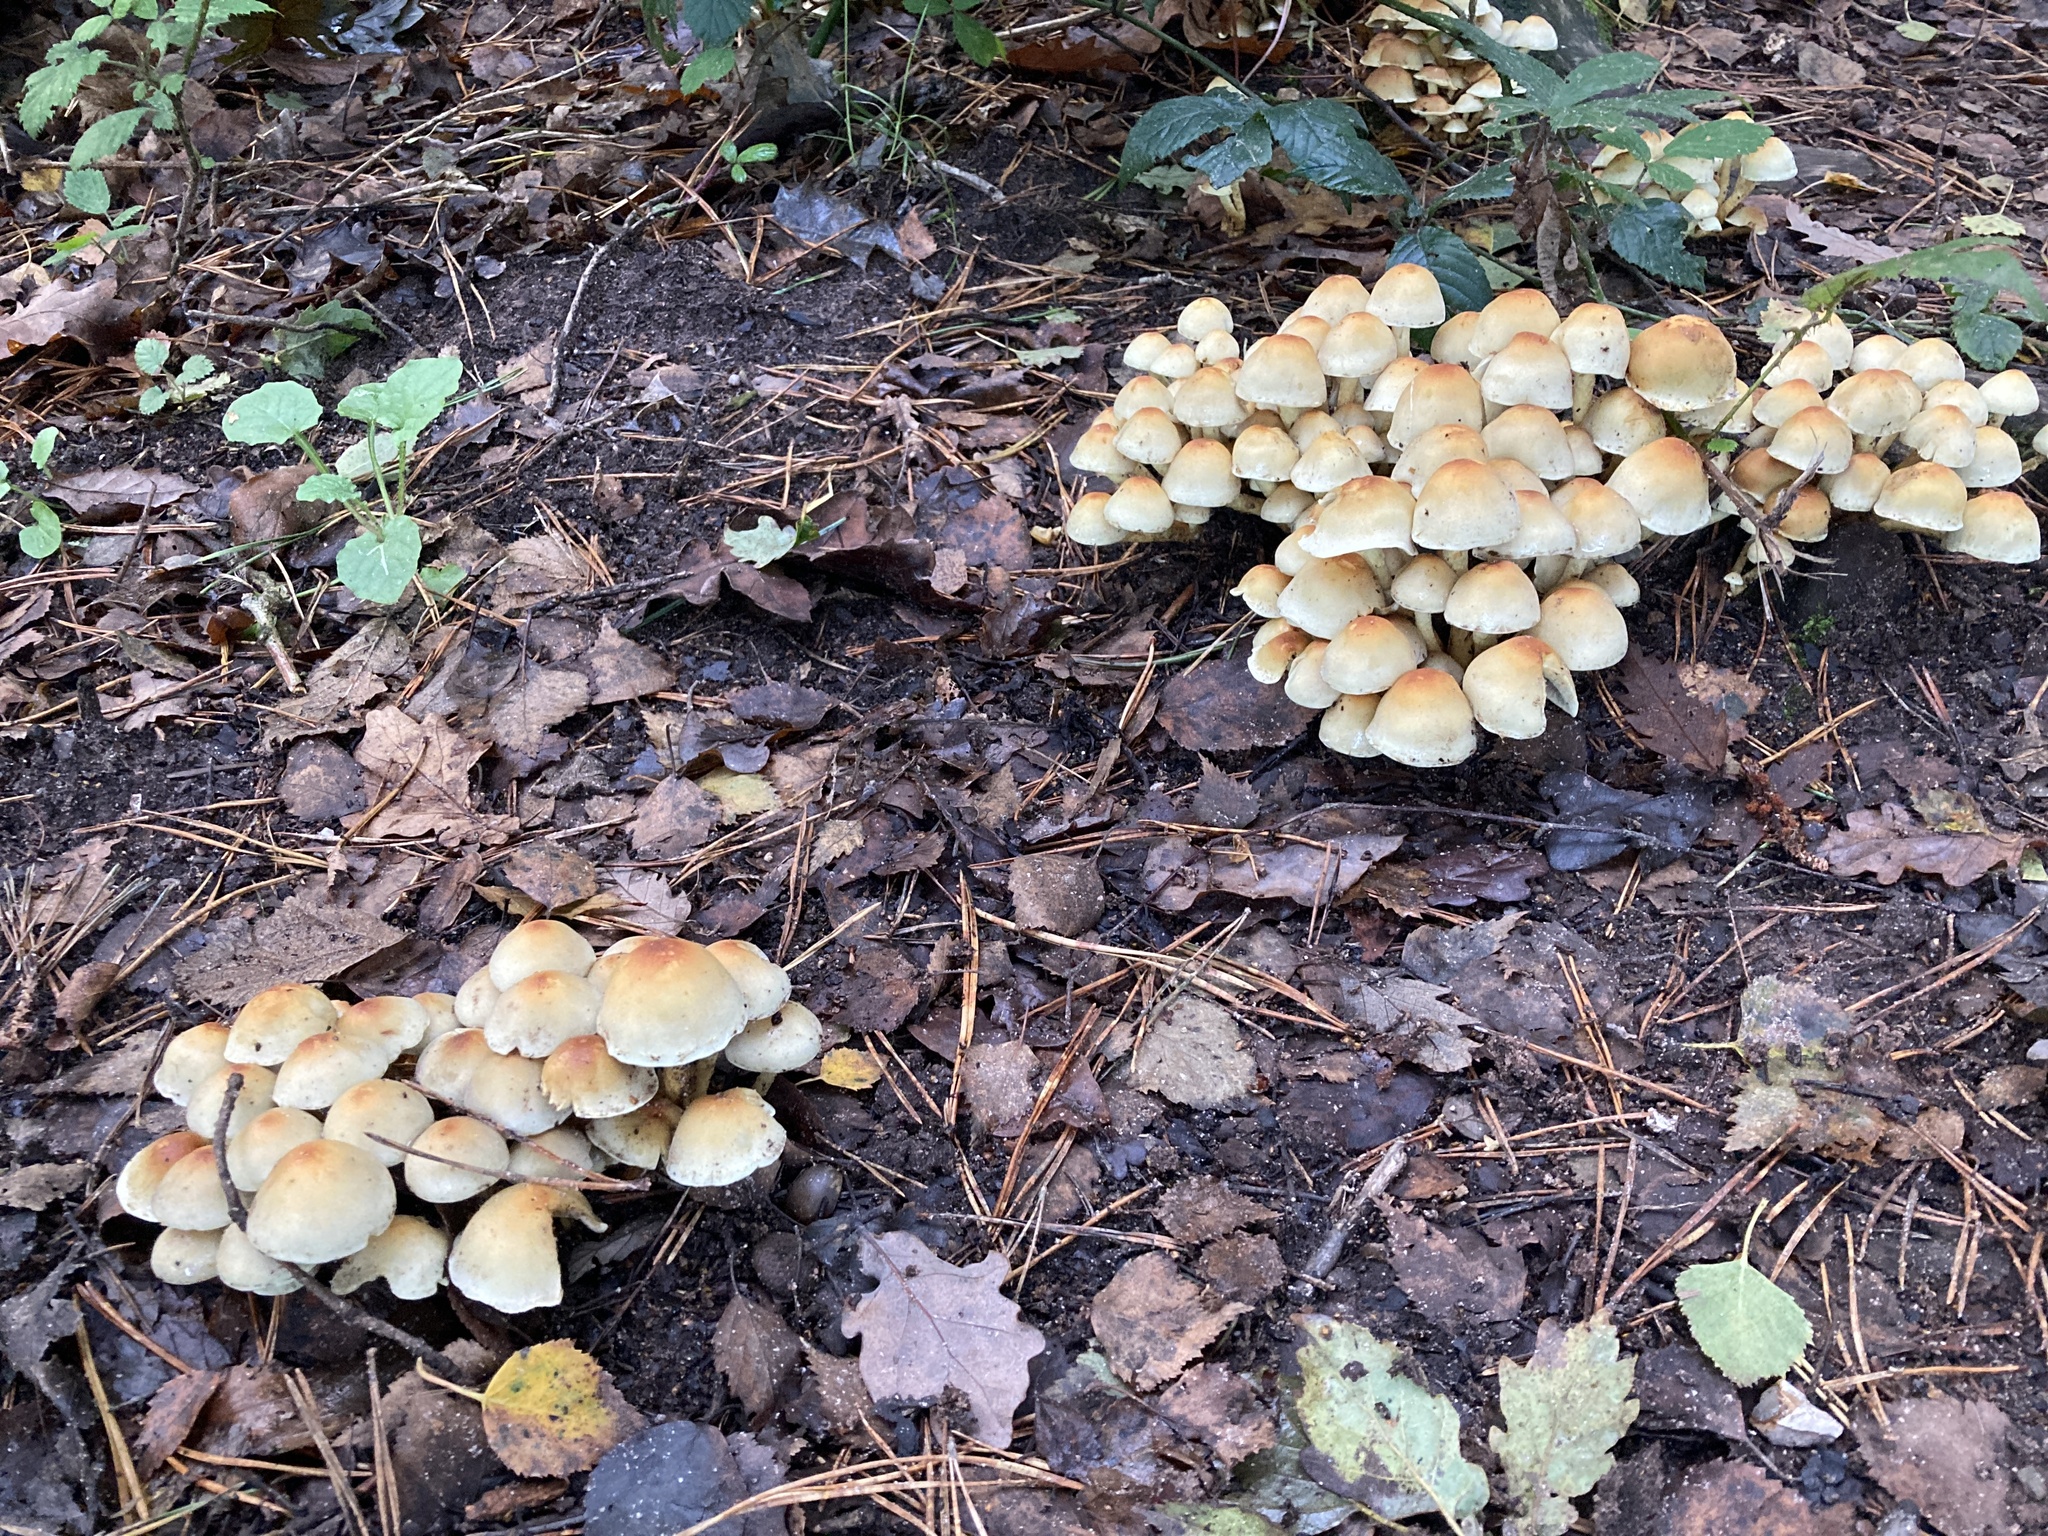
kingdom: Fungi
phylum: Basidiomycota
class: Agaricomycetes
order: Agaricales
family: Strophariaceae
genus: Hypholoma
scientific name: Hypholoma fasciculare
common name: Sulphur tuft
